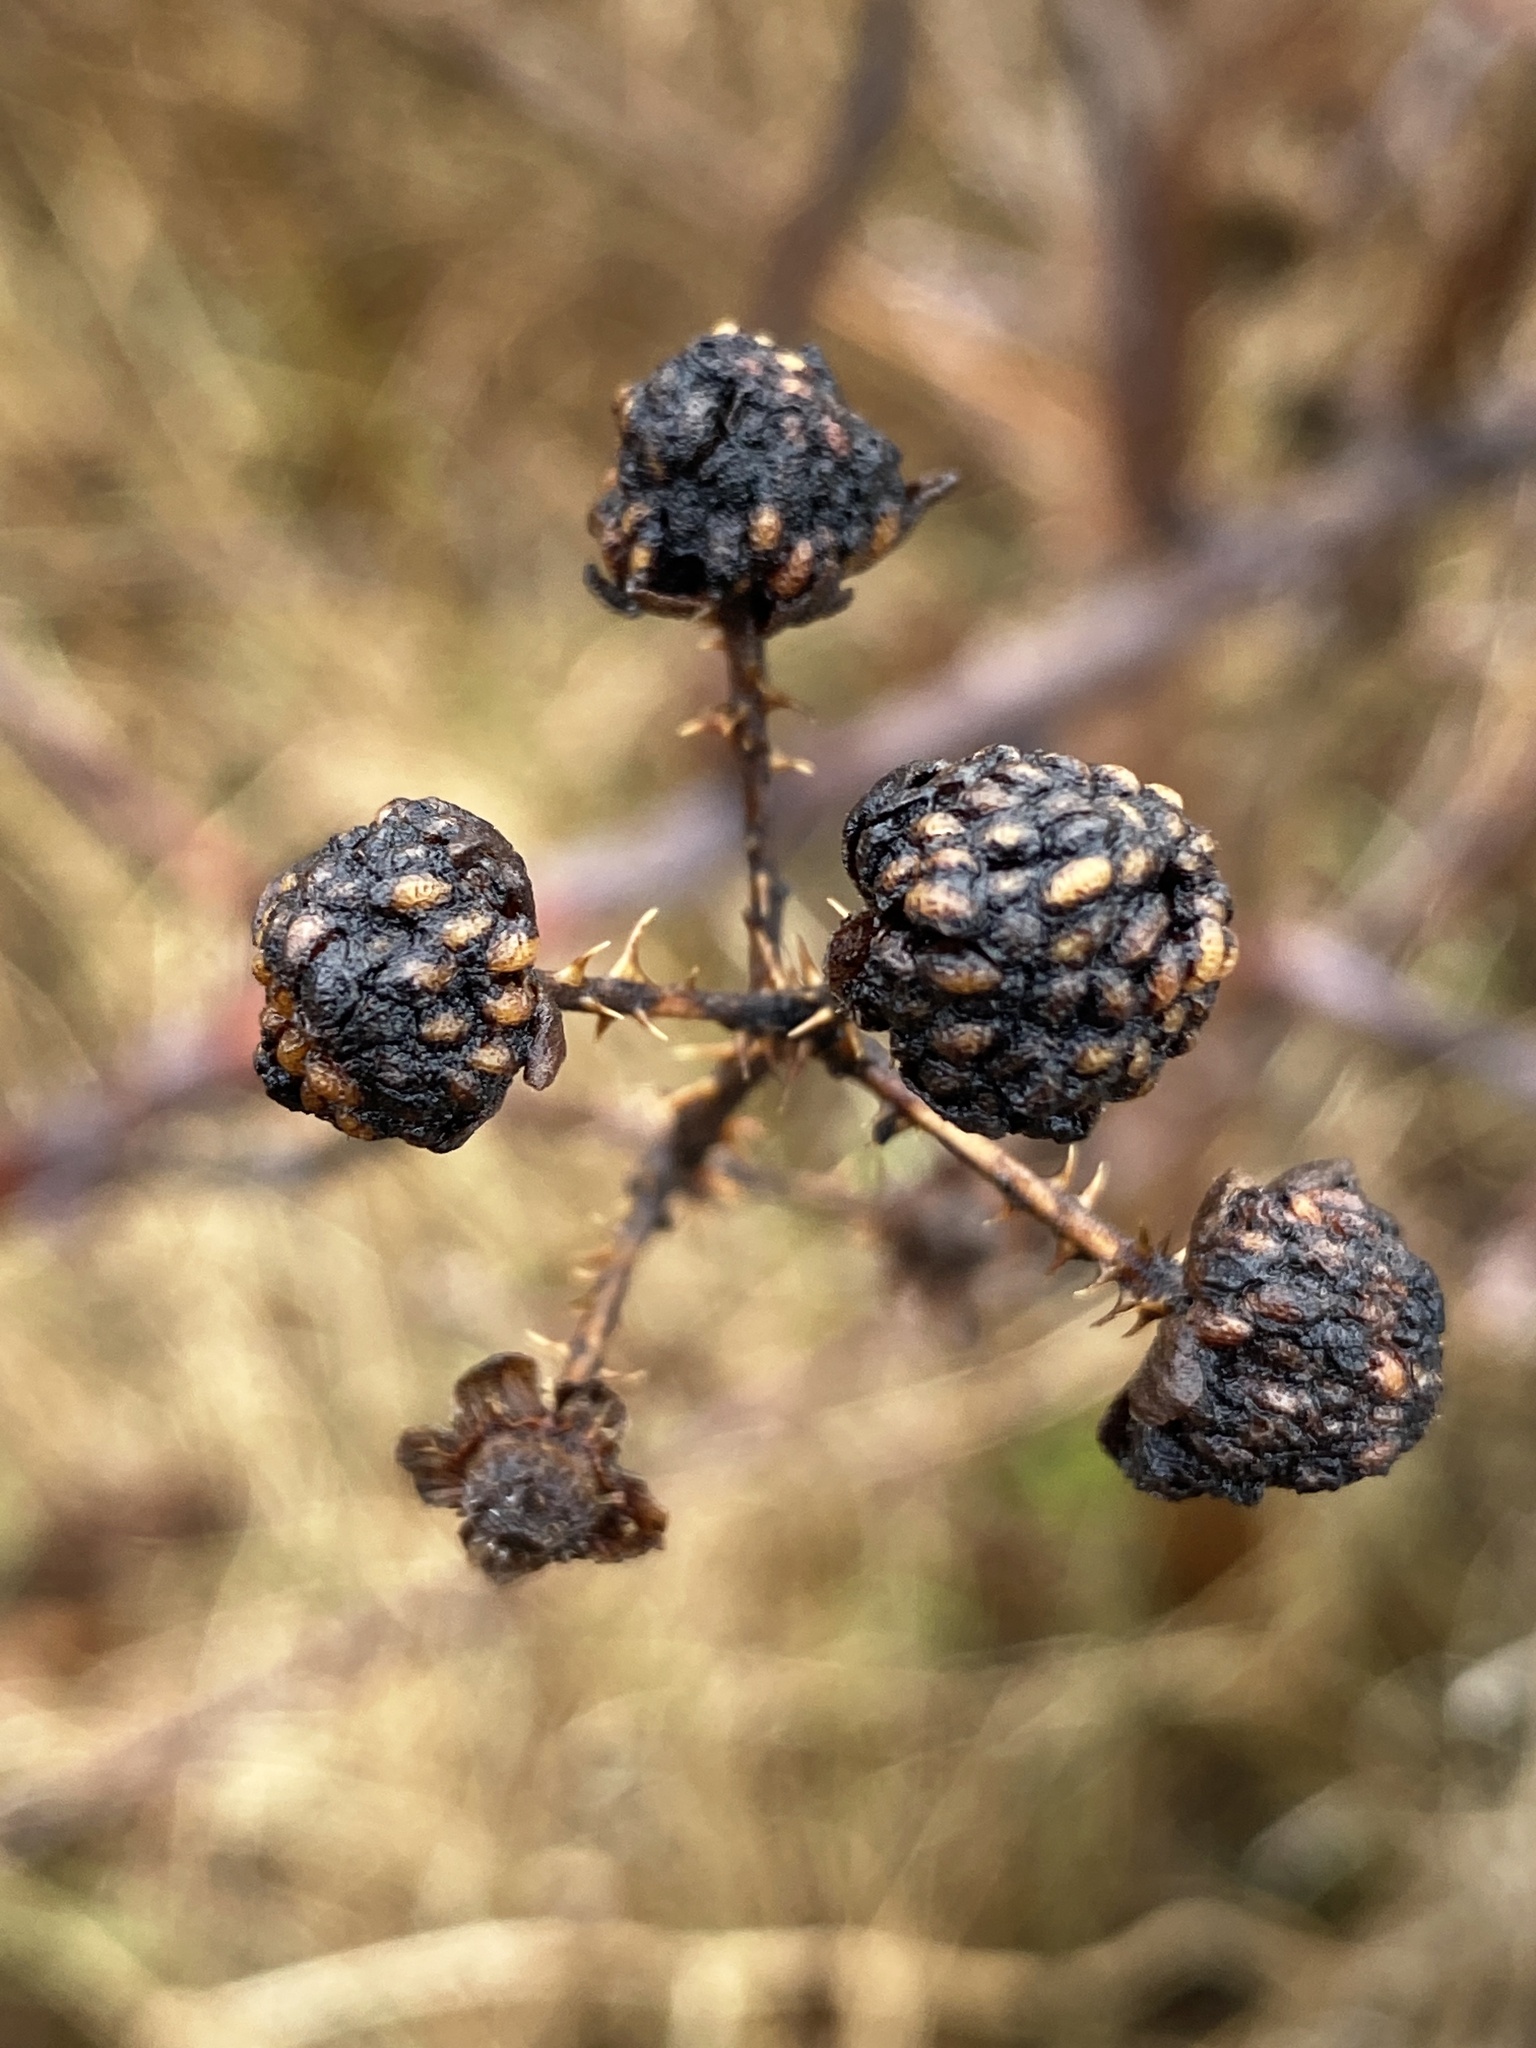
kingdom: Plantae
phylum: Tracheophyta
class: Magnoliopsida
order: Rosales
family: Rosaceae
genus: Rubus
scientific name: Rubus occidentalis
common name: Black raspberry
